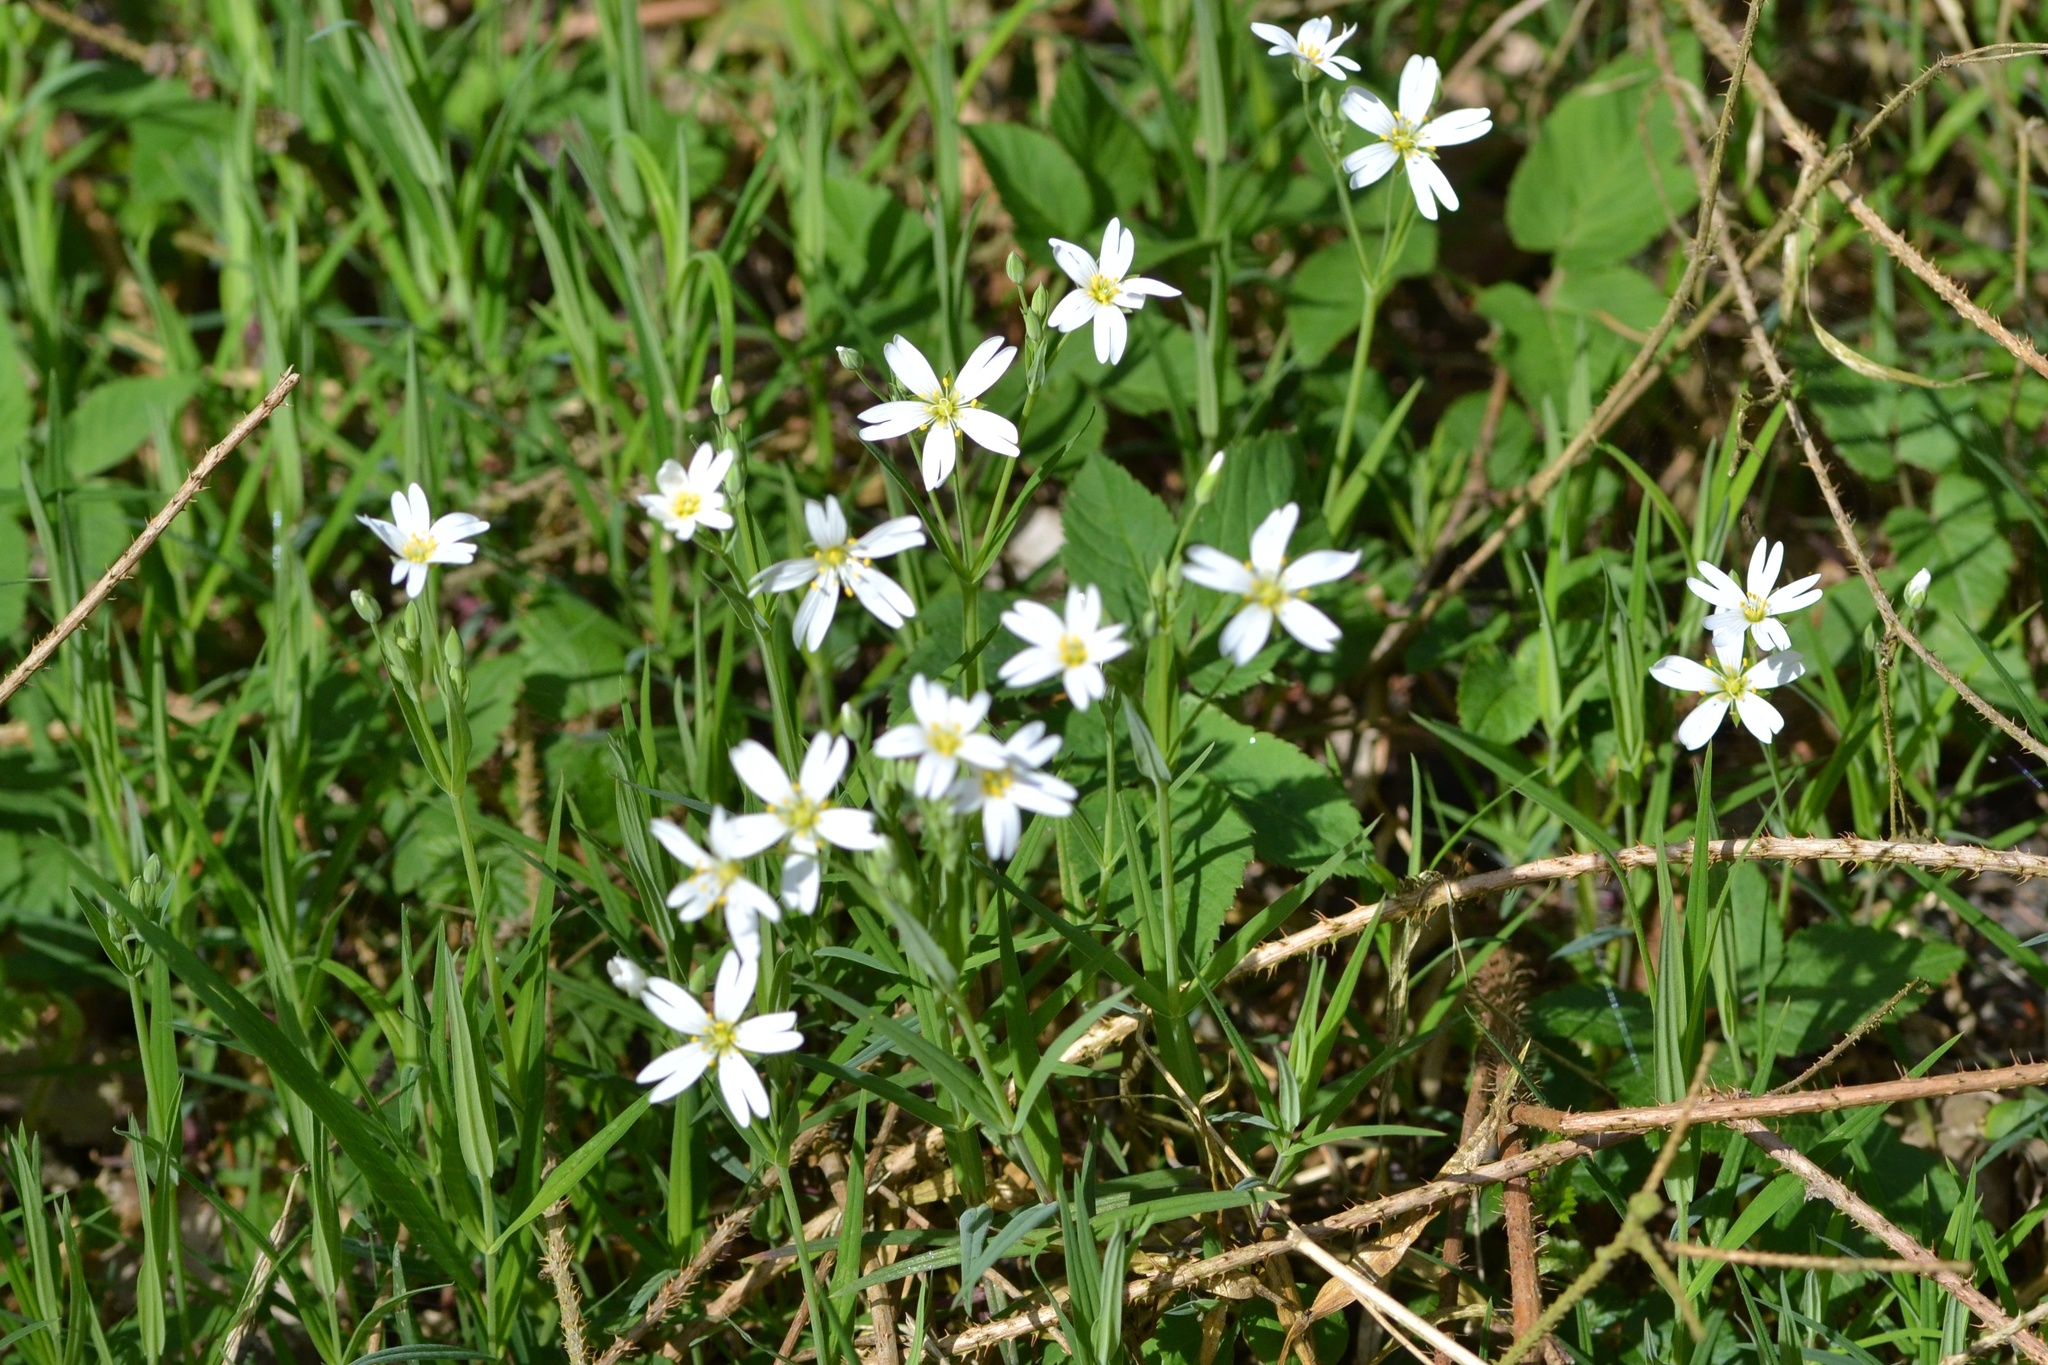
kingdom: Plantae
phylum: Tracheophyta
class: Magnoliopsida
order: Caryophyllales
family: Caryophyllaceae
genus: Rabelera
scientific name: Rabelera holostea
